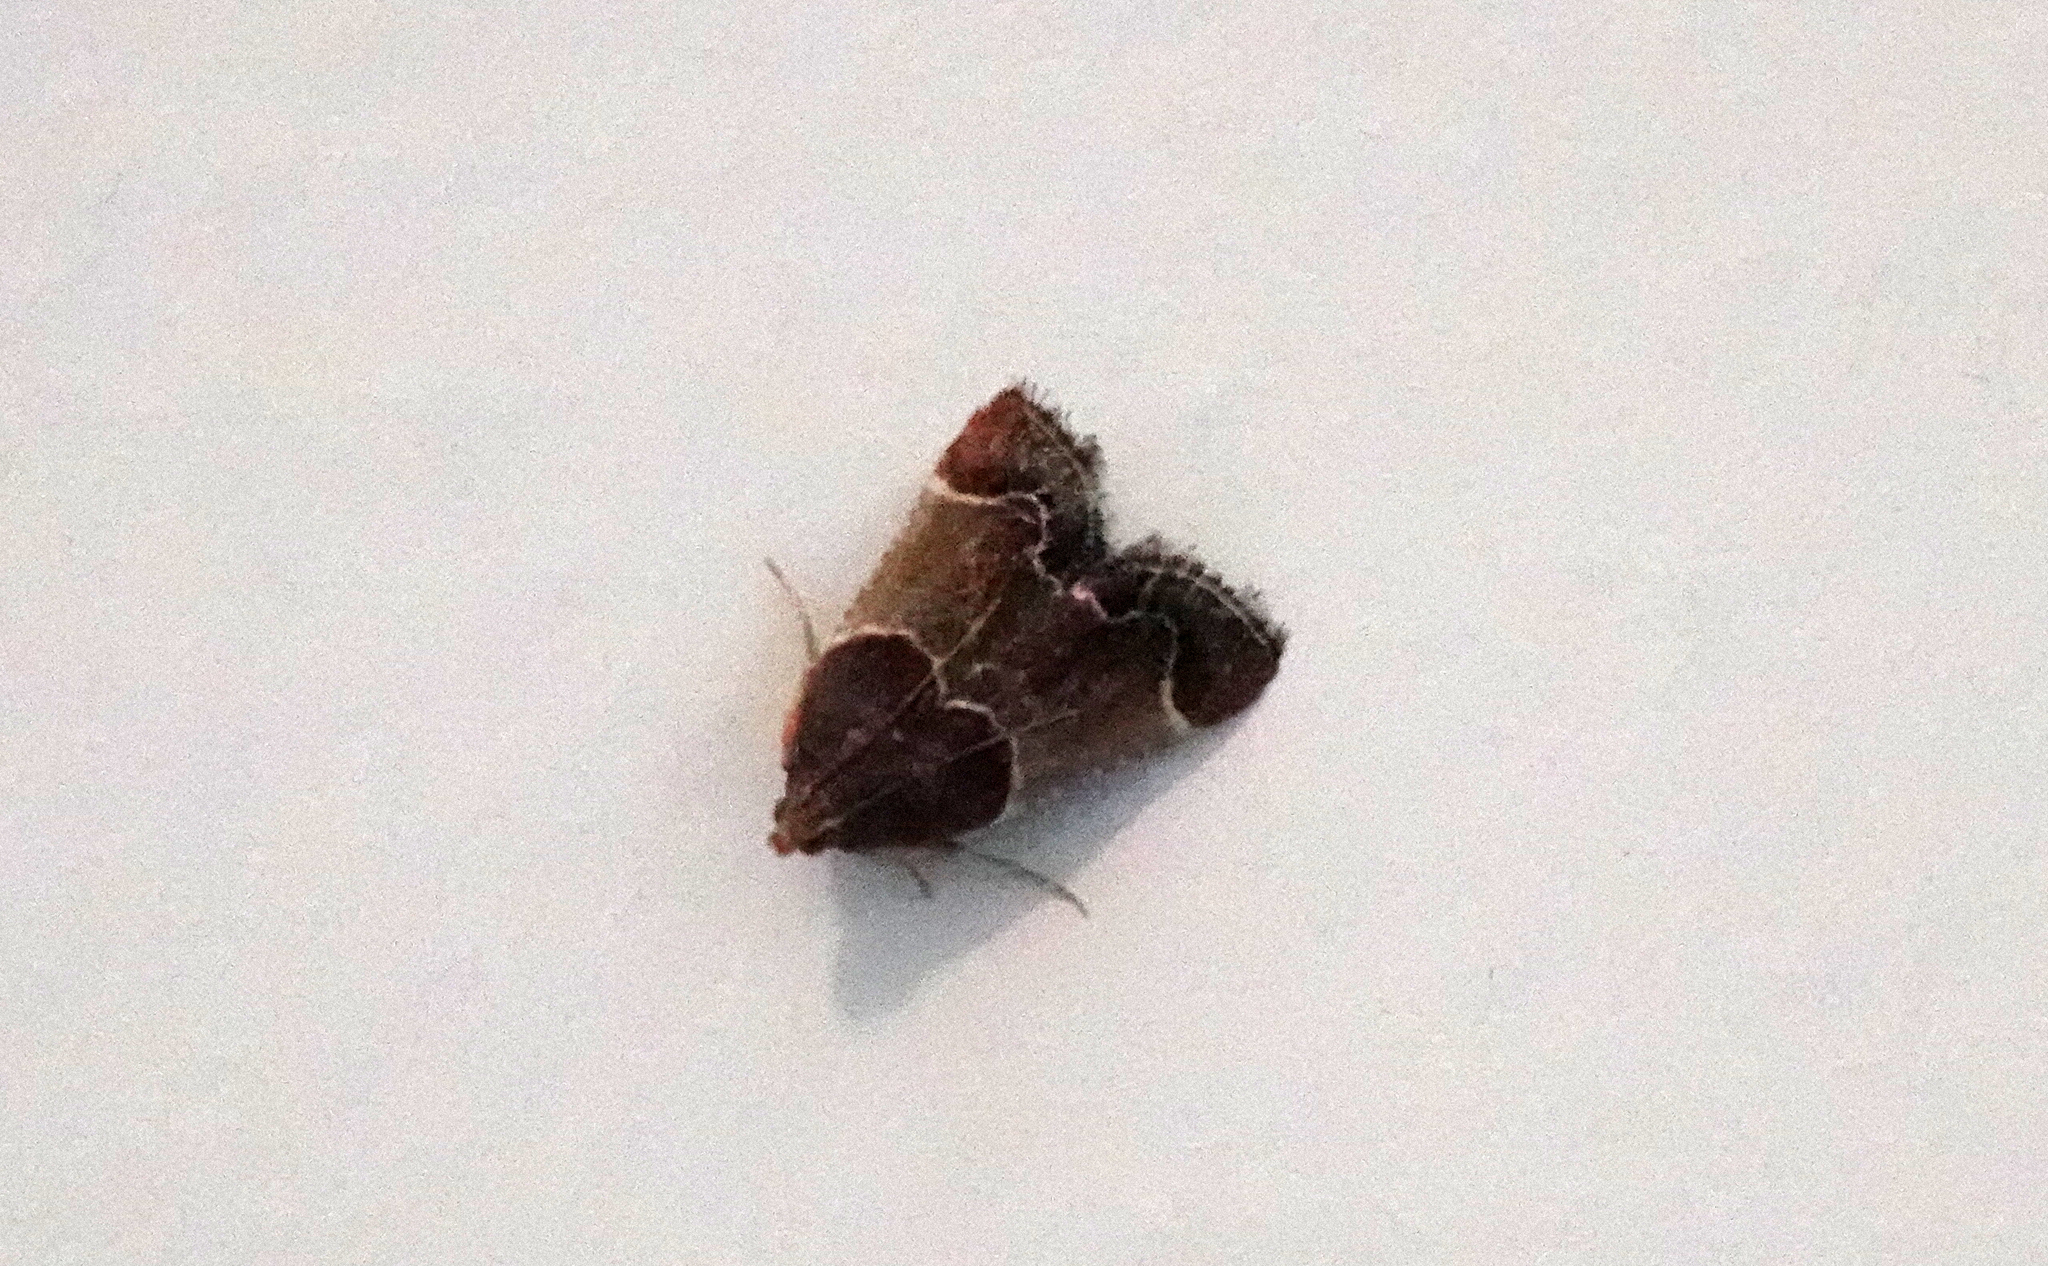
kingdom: Animalia
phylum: Arthropoda
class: Insecta
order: Lepidoptera
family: Pyralidae
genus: Pyralis
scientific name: Pyralis farinalis
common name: Meal moth
